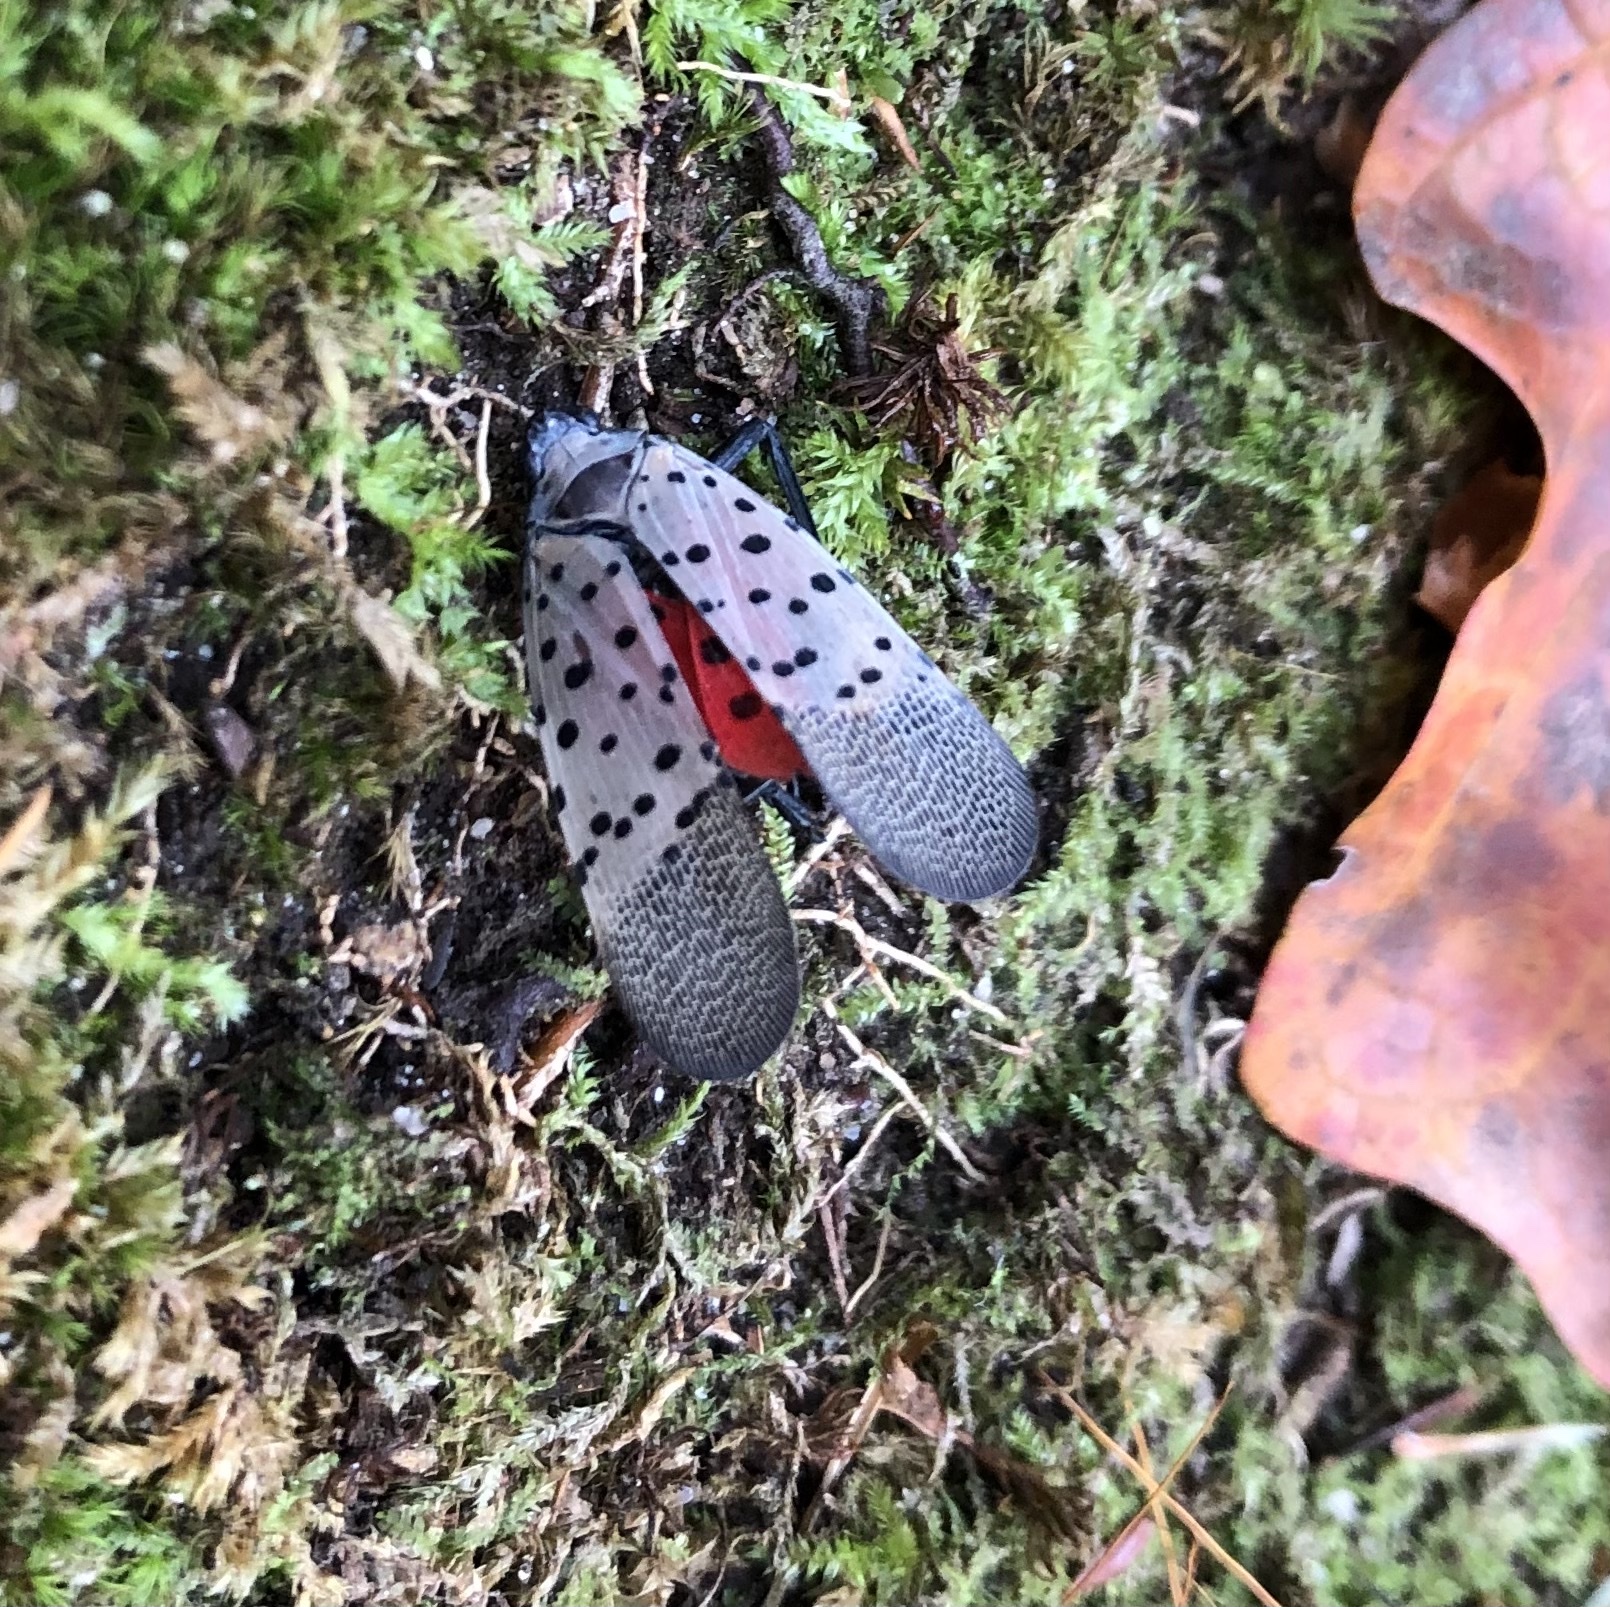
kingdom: Animalia
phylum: Arthropoda
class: Insecta
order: Hemiptera
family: Fulgoridae
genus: Lycorma
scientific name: Lycorma delicatula
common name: Spotted lanternfly
